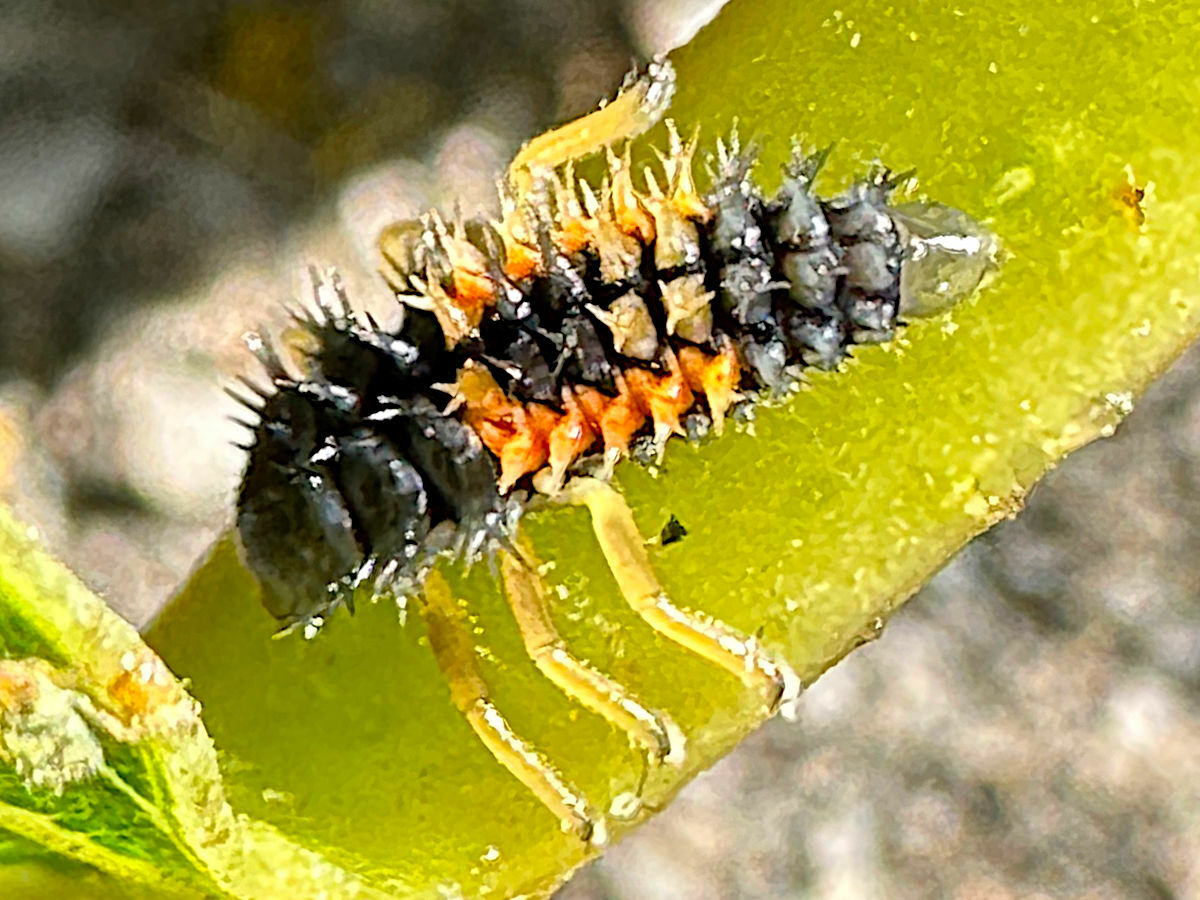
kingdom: Animalia
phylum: Arthropoda
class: Insecta
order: Coleoptera
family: Coccinellidae
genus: Harmonia
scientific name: Harmonia axyridis
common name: Harlequin ladybird
